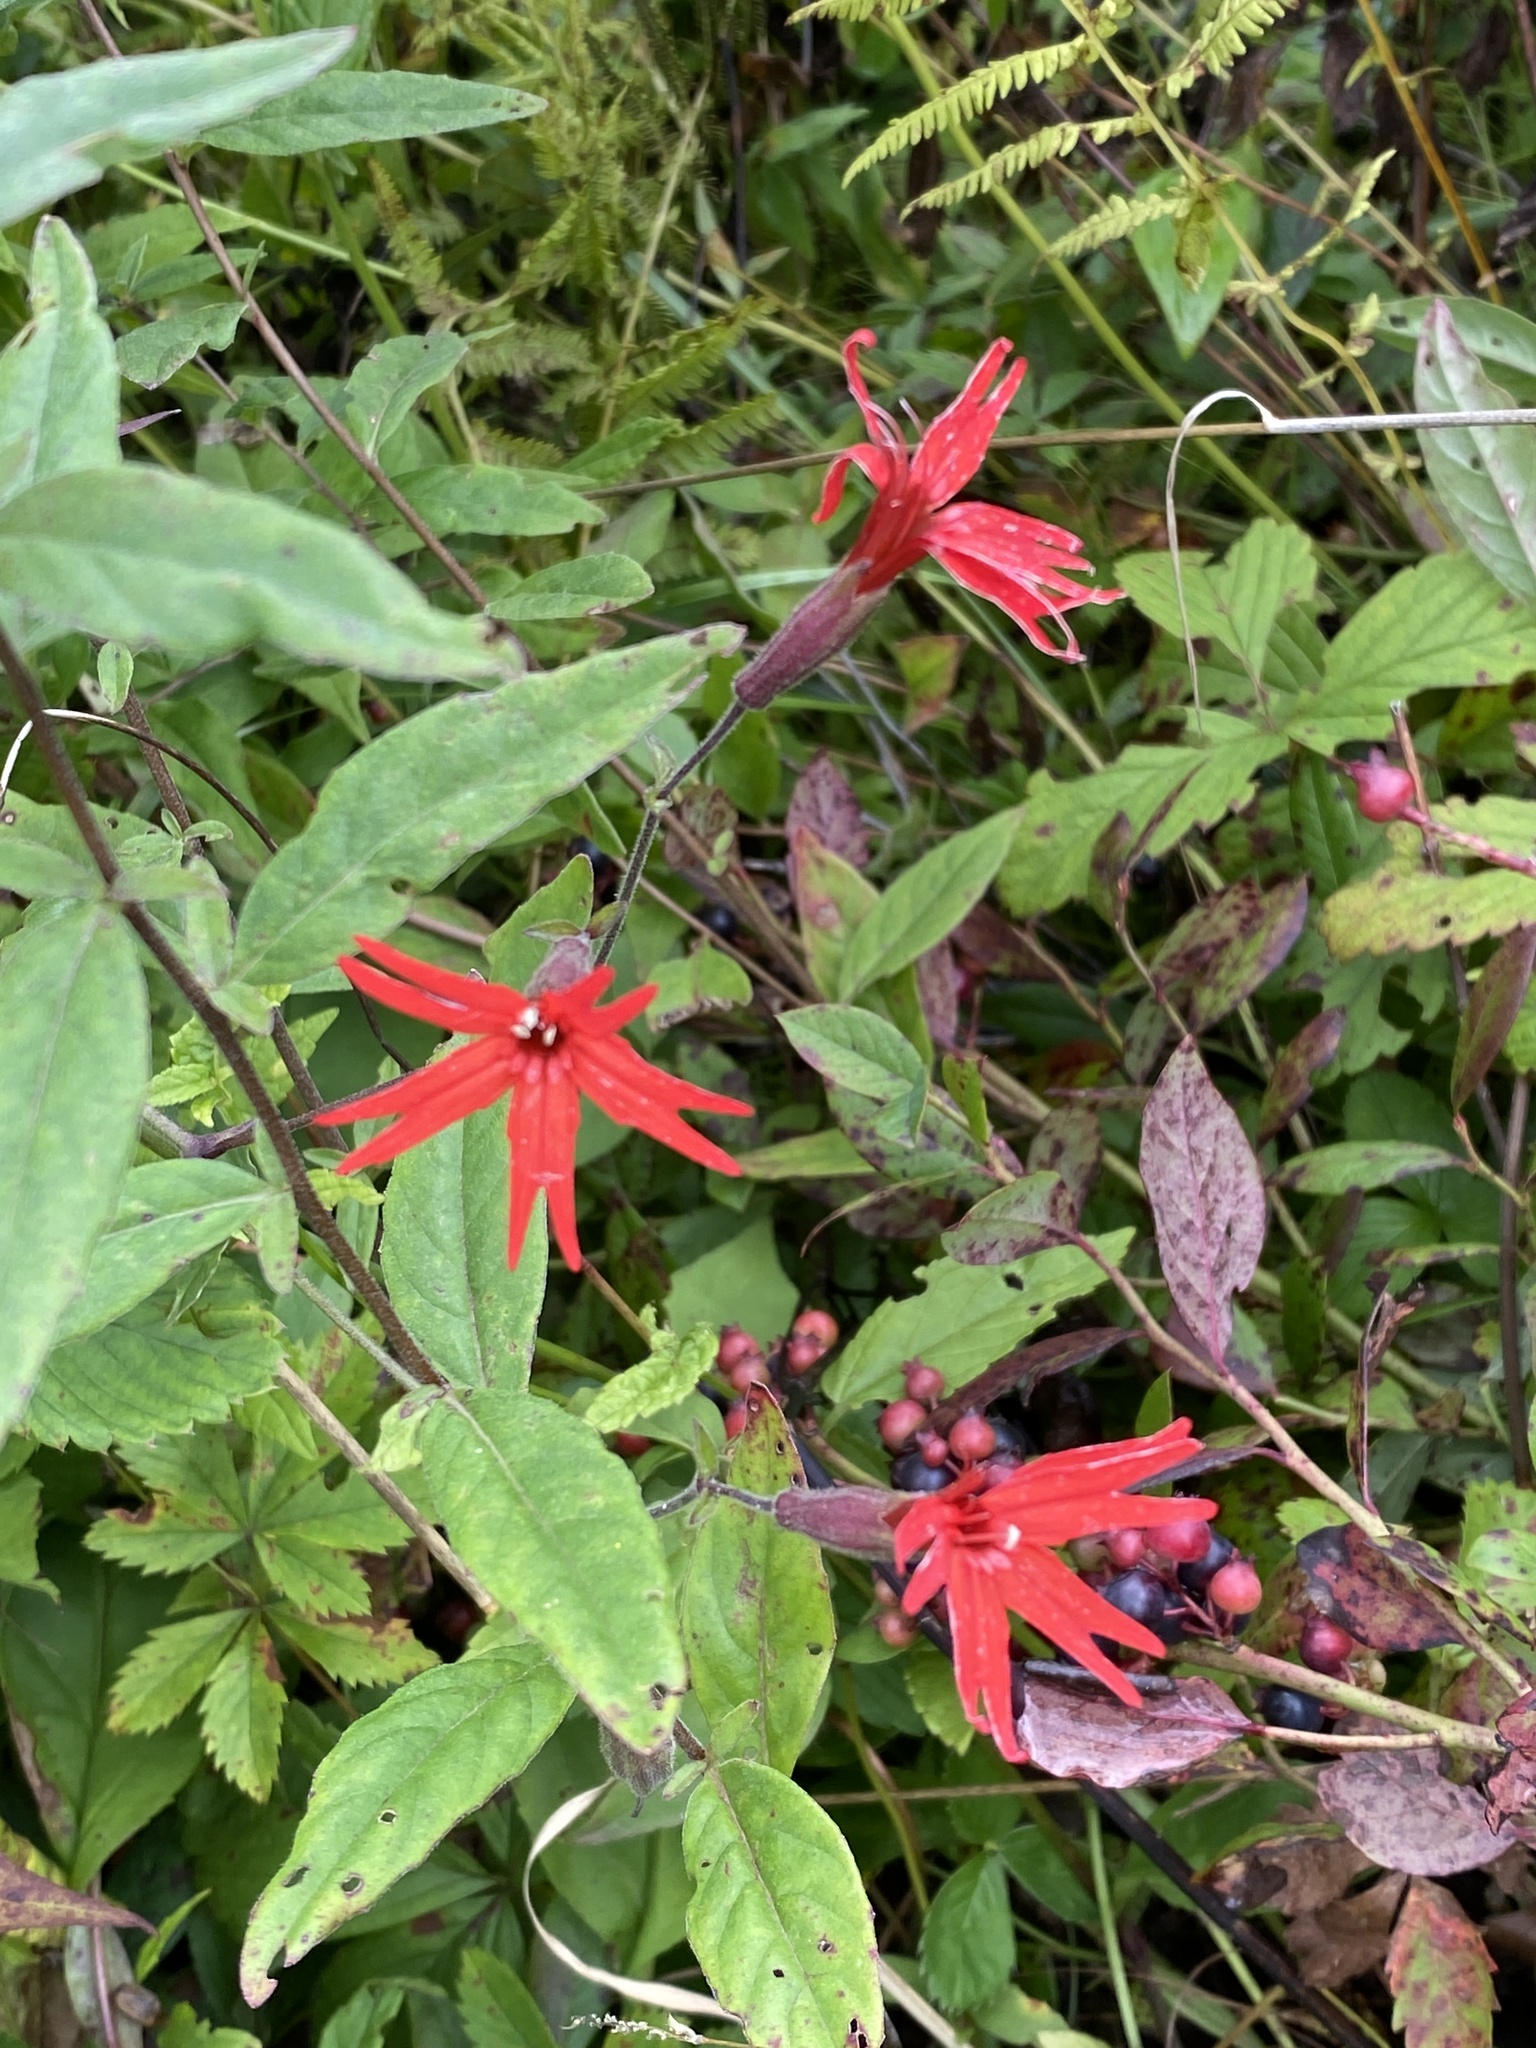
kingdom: Plantae
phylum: Tracheophyta
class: Magnoliopsida
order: Caryophyllales
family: Caryophyllaceae
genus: Silene
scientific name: Silene virginica
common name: Fire-pink
